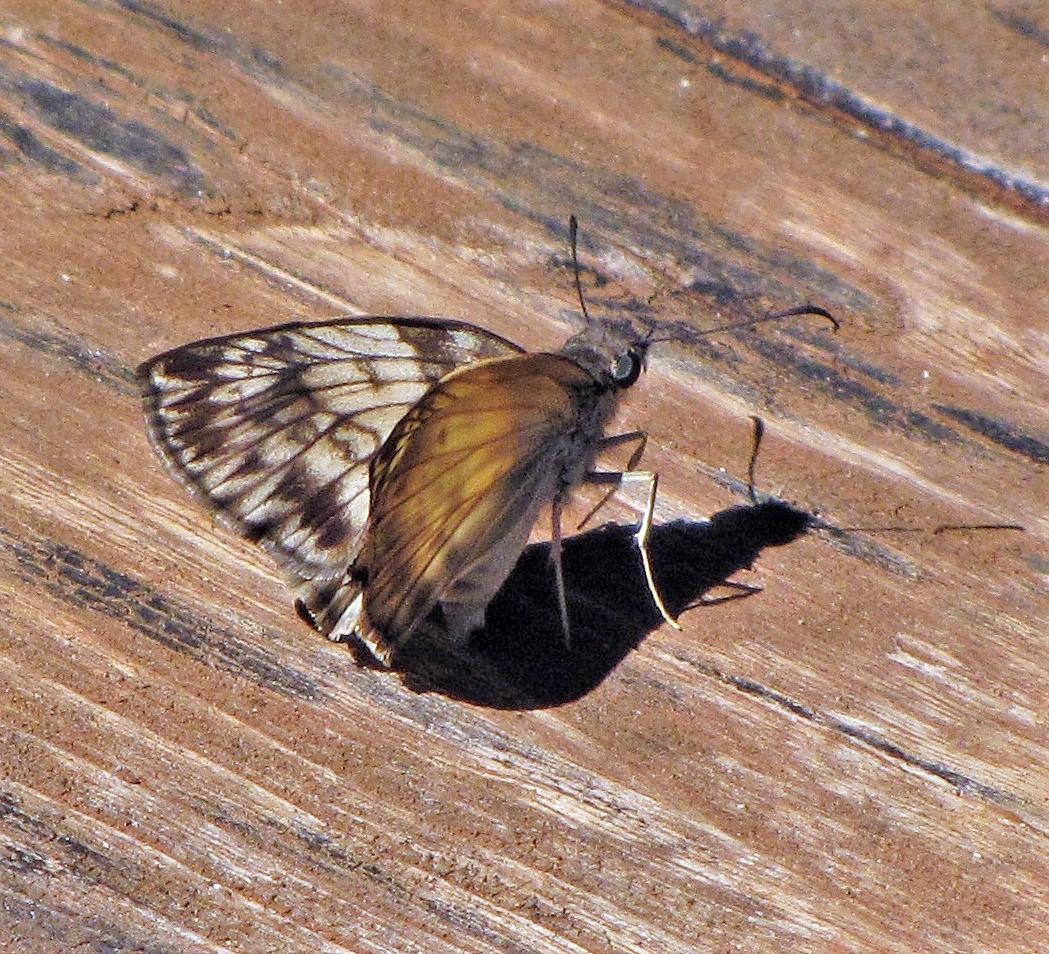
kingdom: Animalia
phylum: Arthropoda
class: Insecta
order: Lepidoptera
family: Hesperiidae
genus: Mylon
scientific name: Mylon maimon
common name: Common mylon
